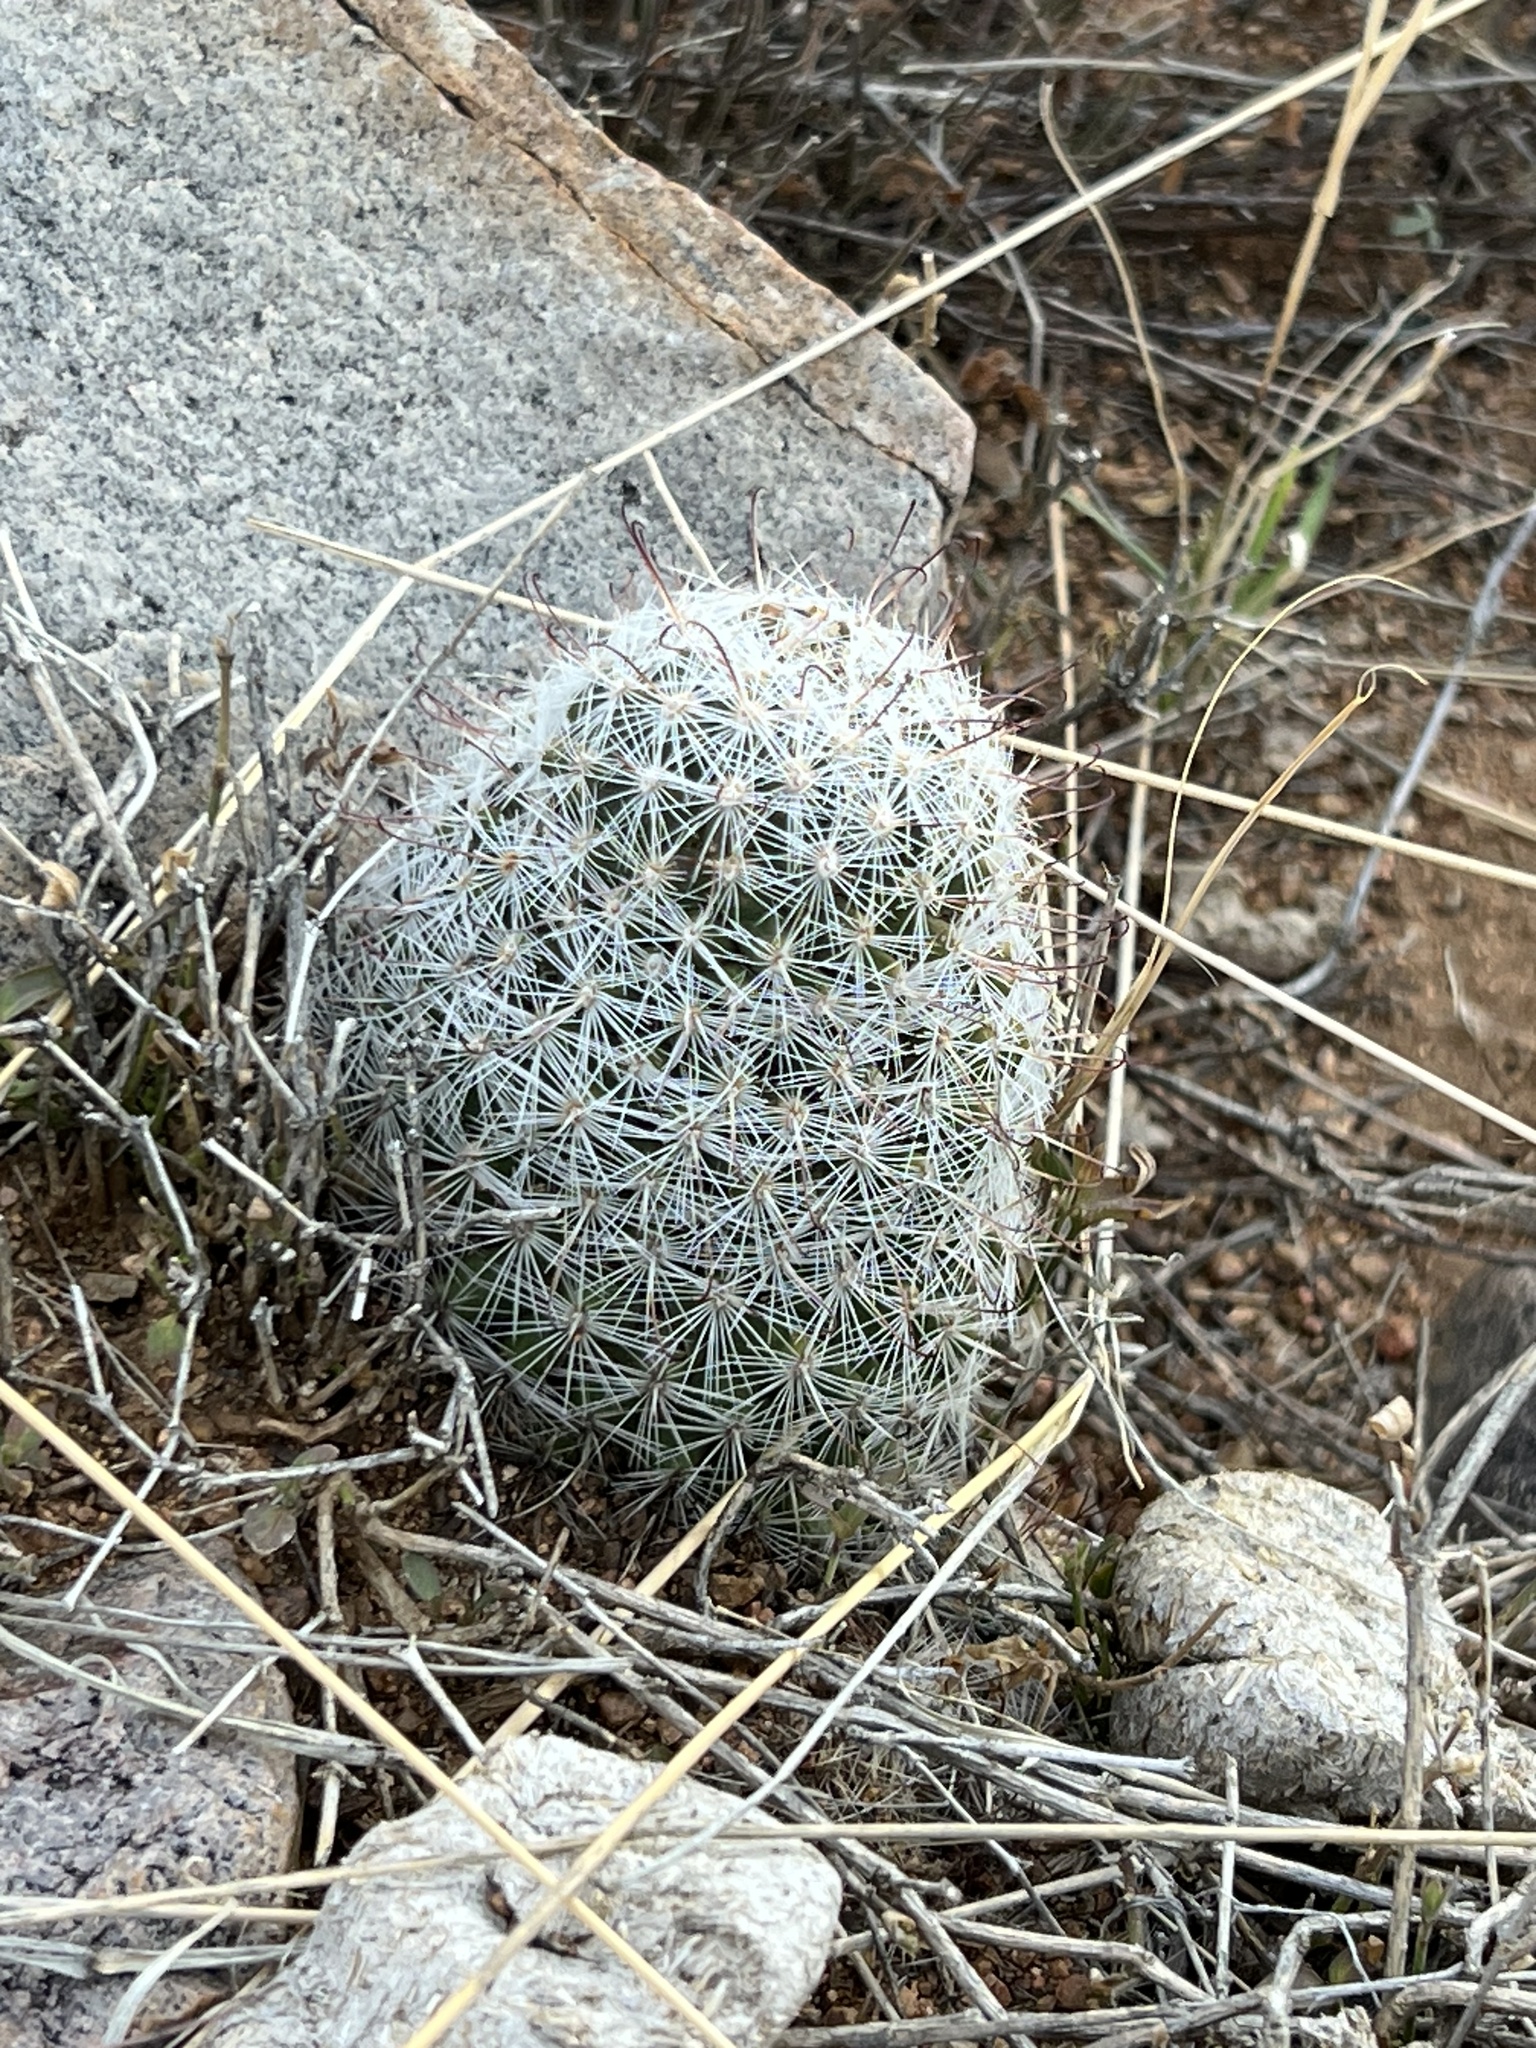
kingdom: Plantae
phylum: Tracheophyta
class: Magnoliopsida
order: Caryophyllales
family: Cactaceae
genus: Cochemiea
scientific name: Cochemiea grahamii
